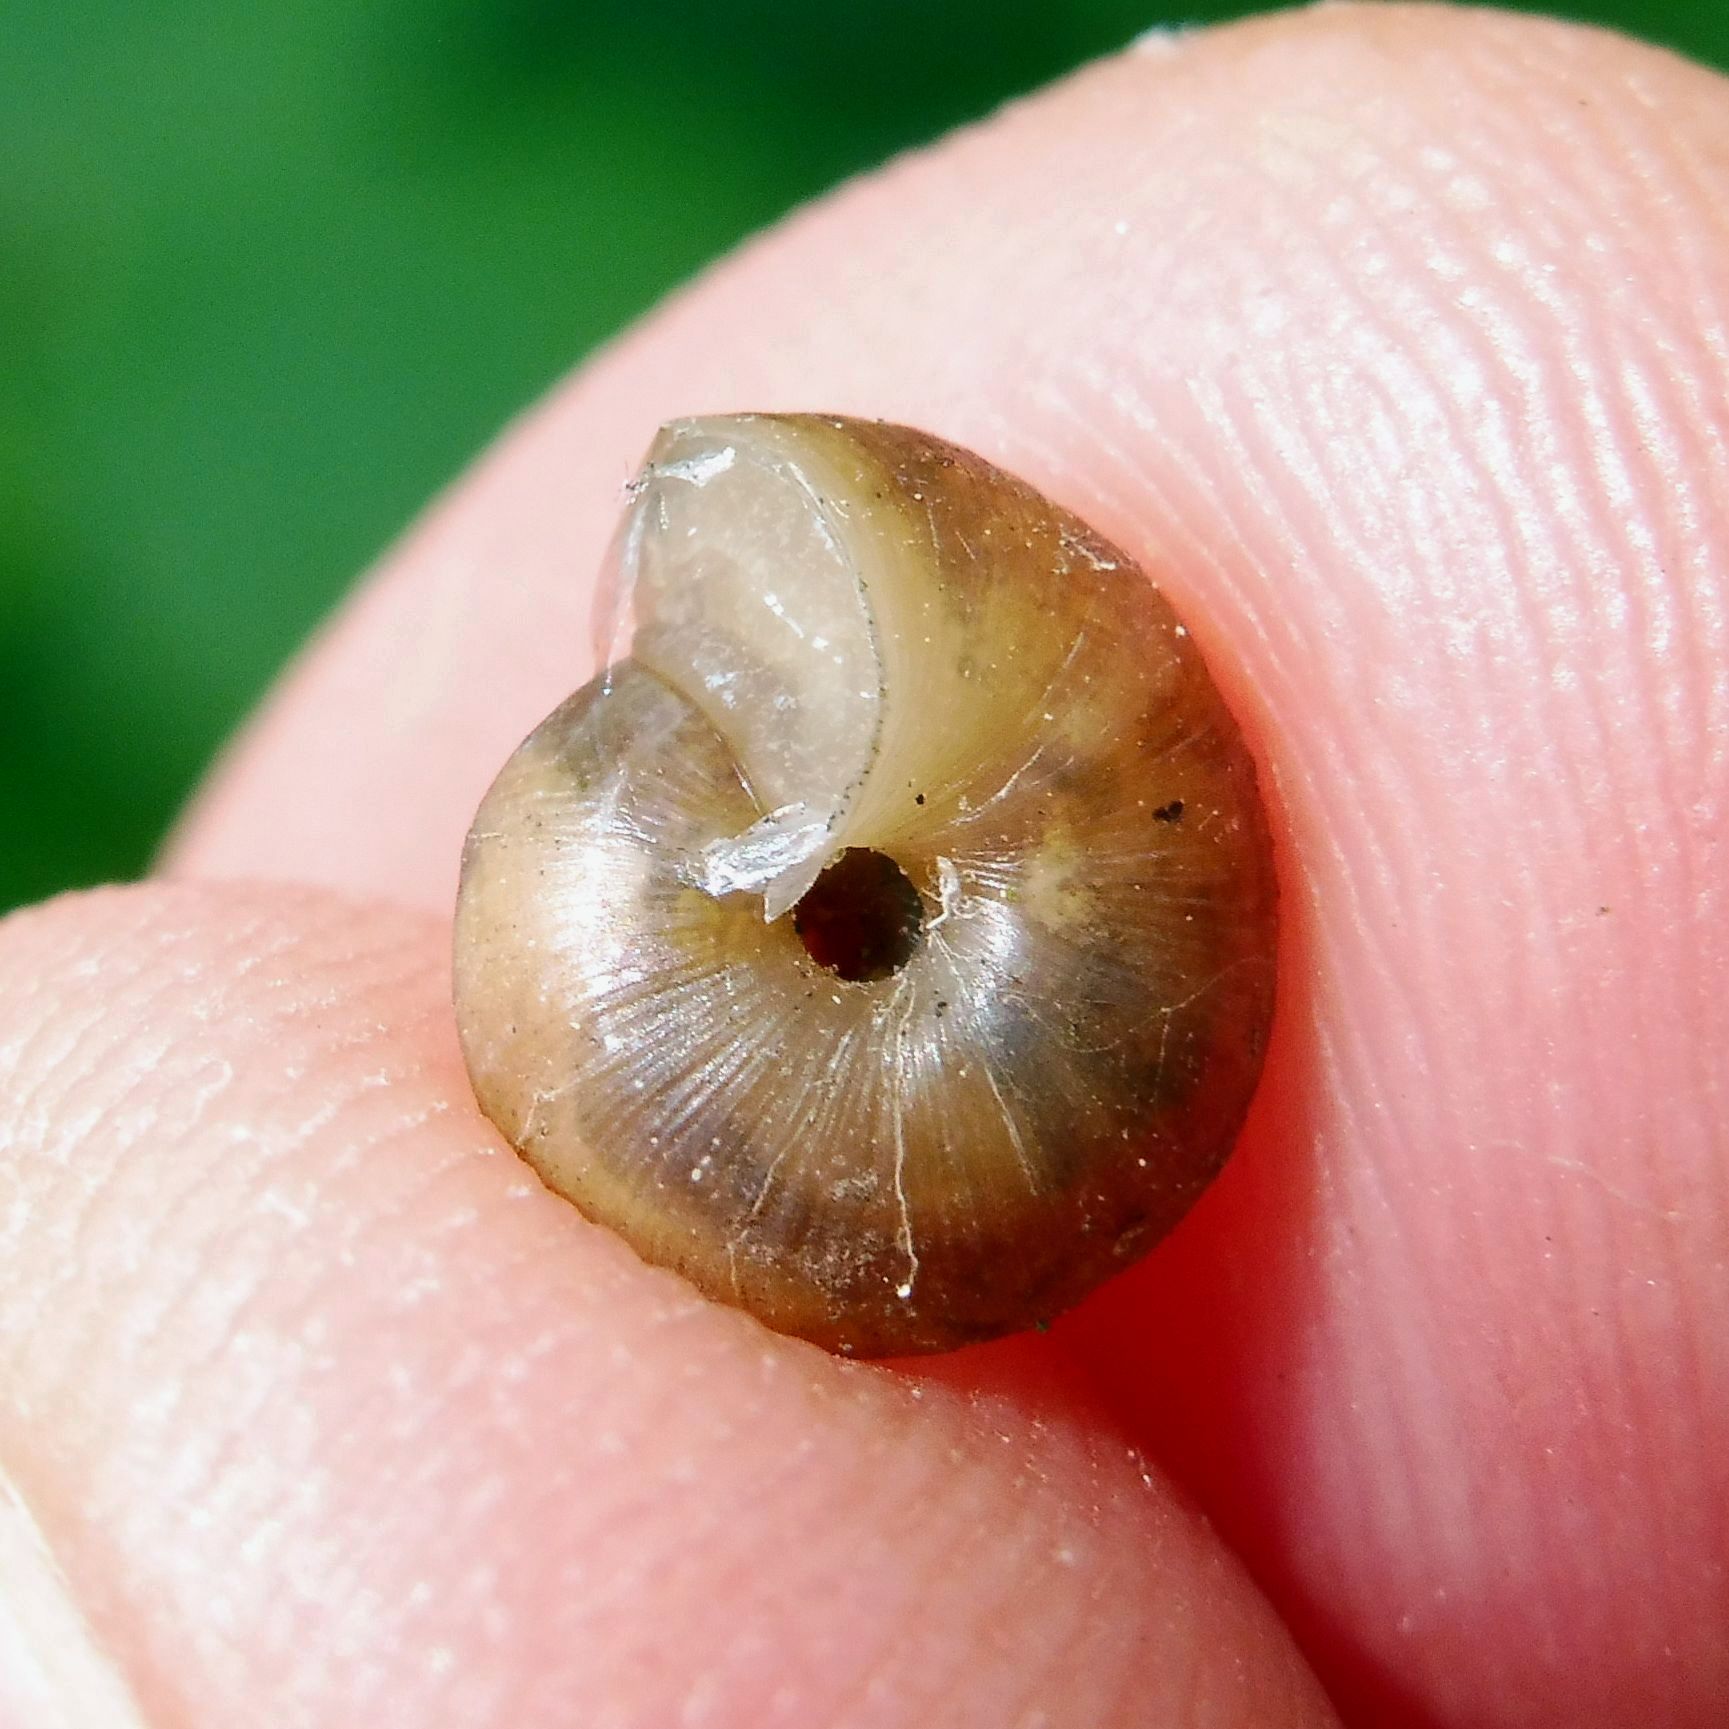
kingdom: Animalia
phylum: Mollusca
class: Gastropoda
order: Stylommatophora
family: Hygromiidae
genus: Trochulus
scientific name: Trochulus striolatus
